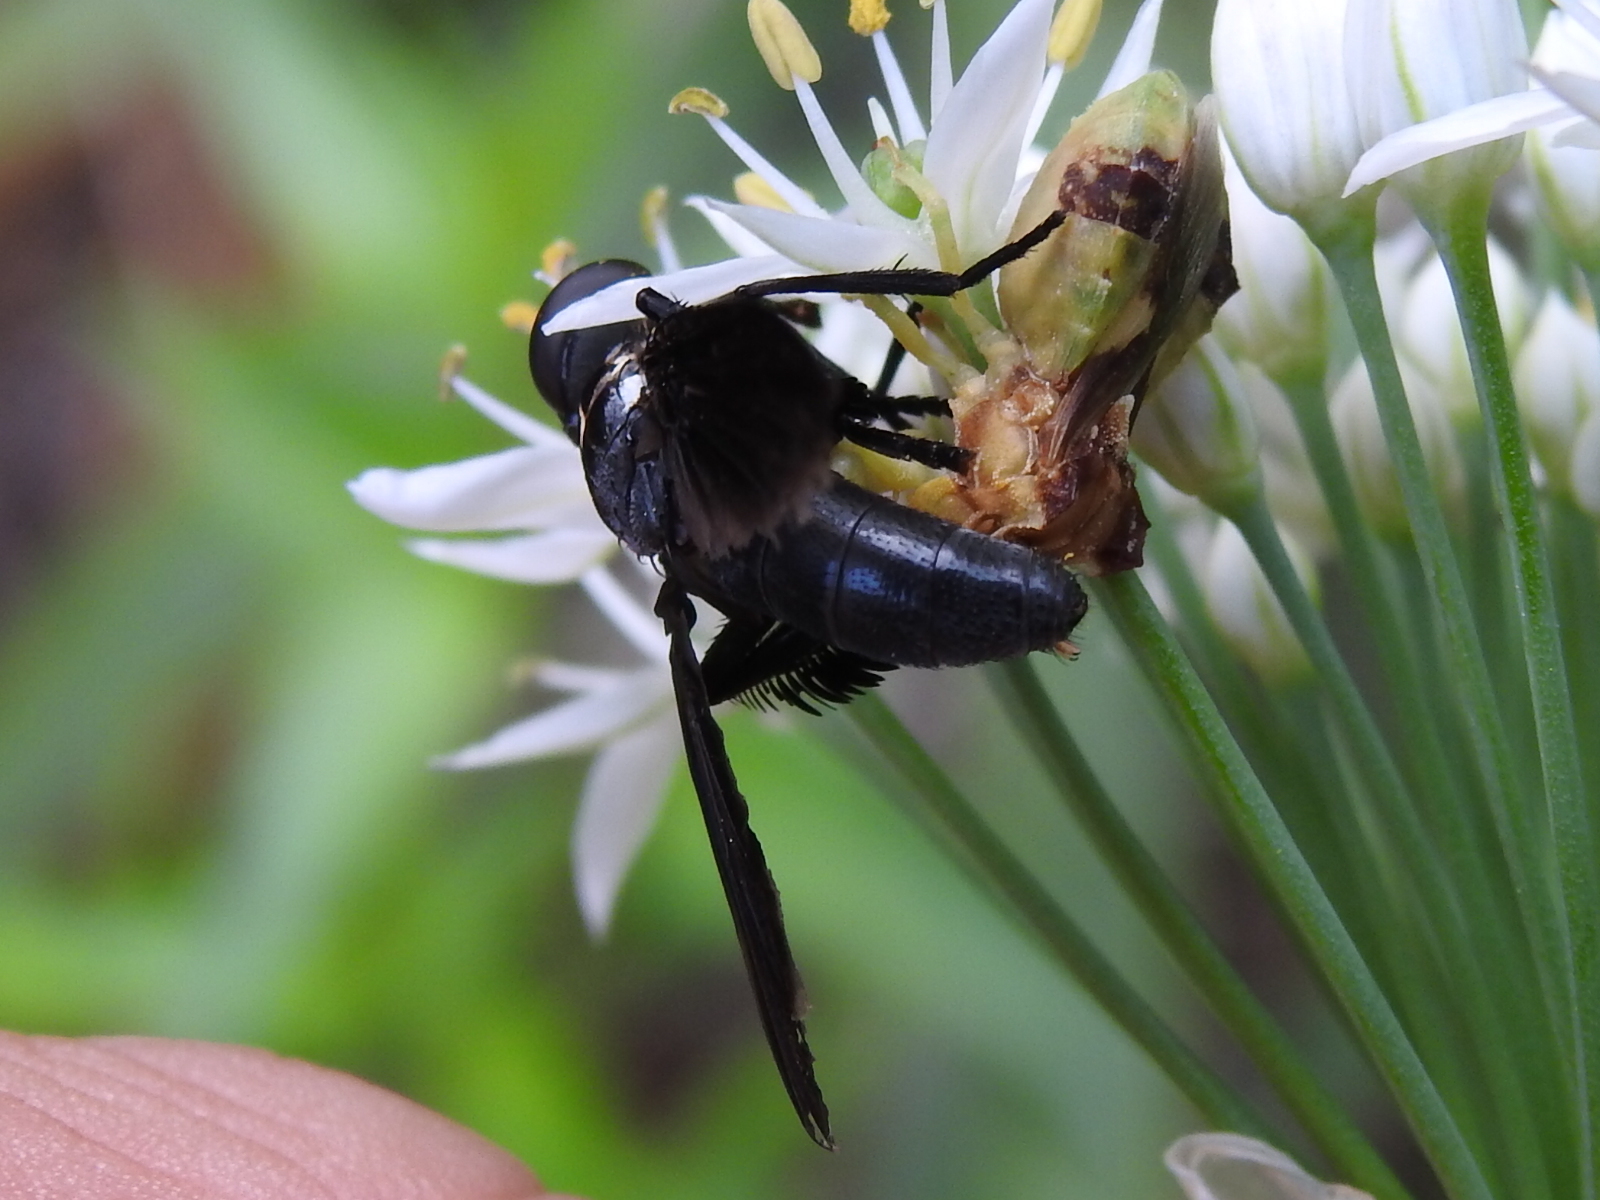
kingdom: Animalia
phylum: Arthropoda
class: Insecta
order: Diptera
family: Tachinidae
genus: Trichopoda
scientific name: Trichopoda lanipes
